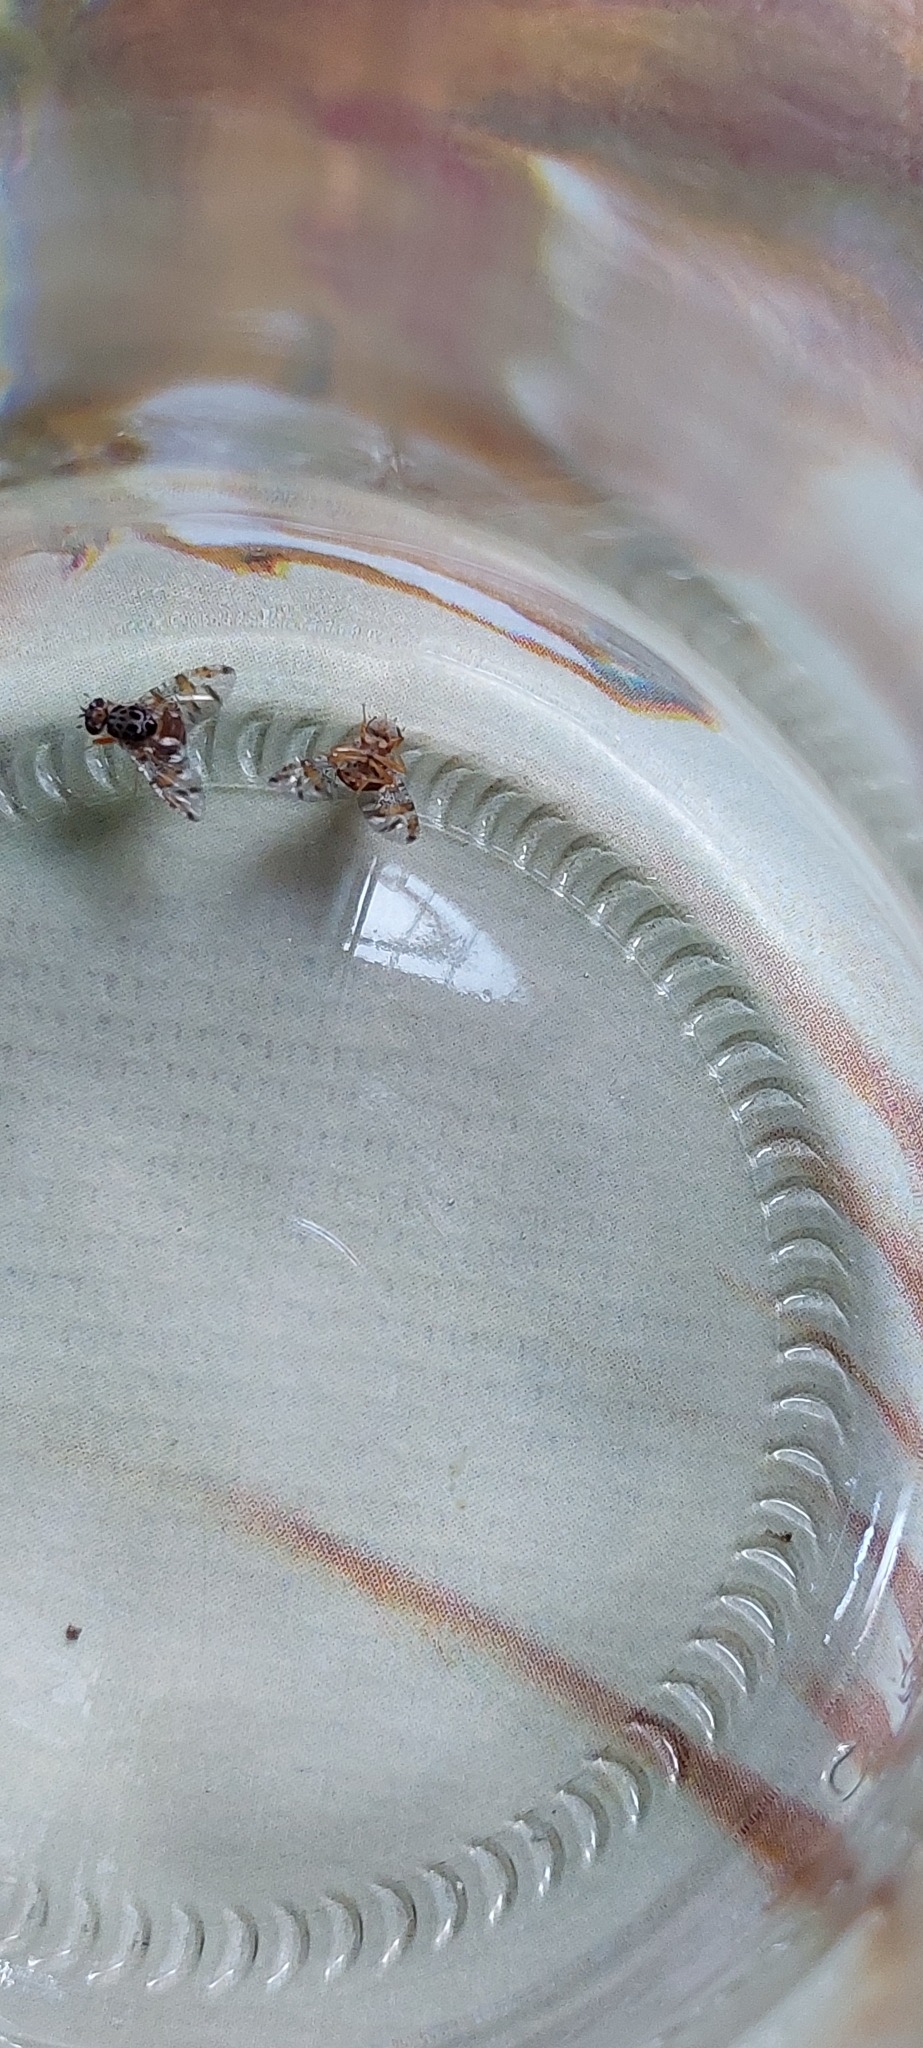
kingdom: Animalia
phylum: Arthropoda
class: Insecta
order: Diptera
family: Tephritidae
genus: Ceratitis
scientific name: Ceratitis capitata
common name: Mediterranean fruit fly
